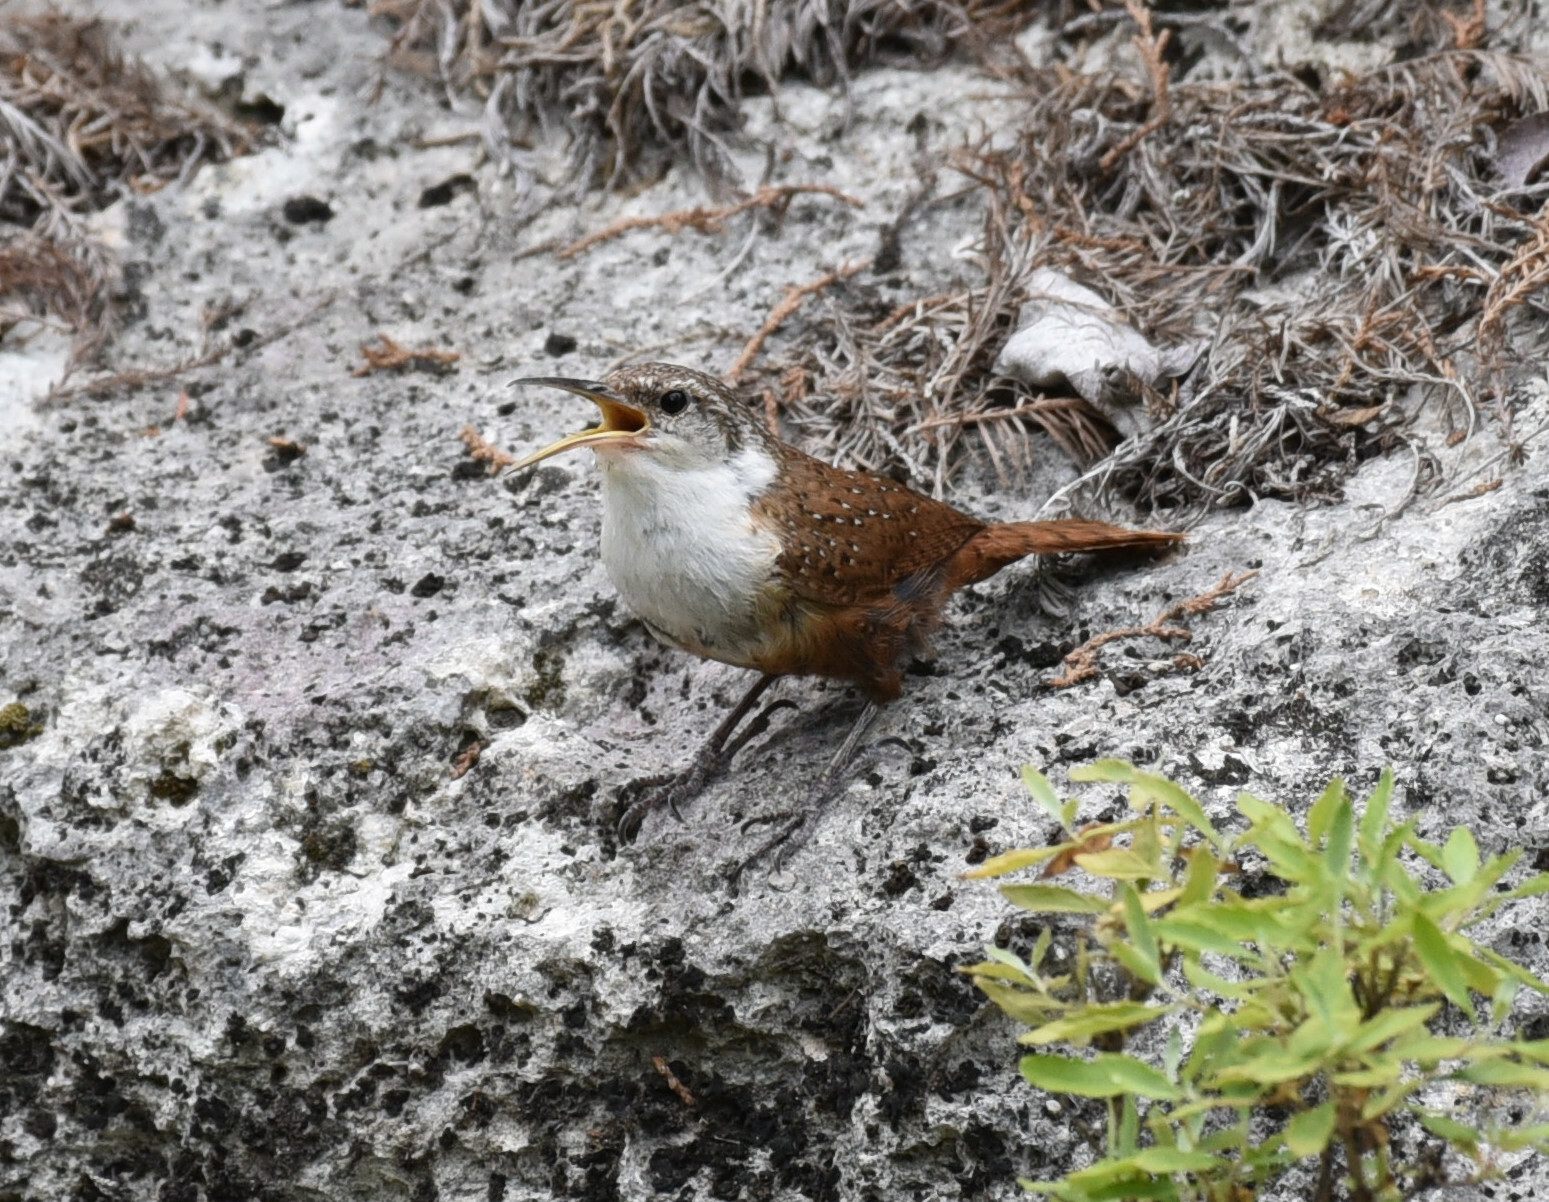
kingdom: Animalia
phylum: Chordata
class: Aves
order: Passeriformes
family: Troglodytidae
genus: Catherpes
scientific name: Catherpes mexicanus
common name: Canyon wren
